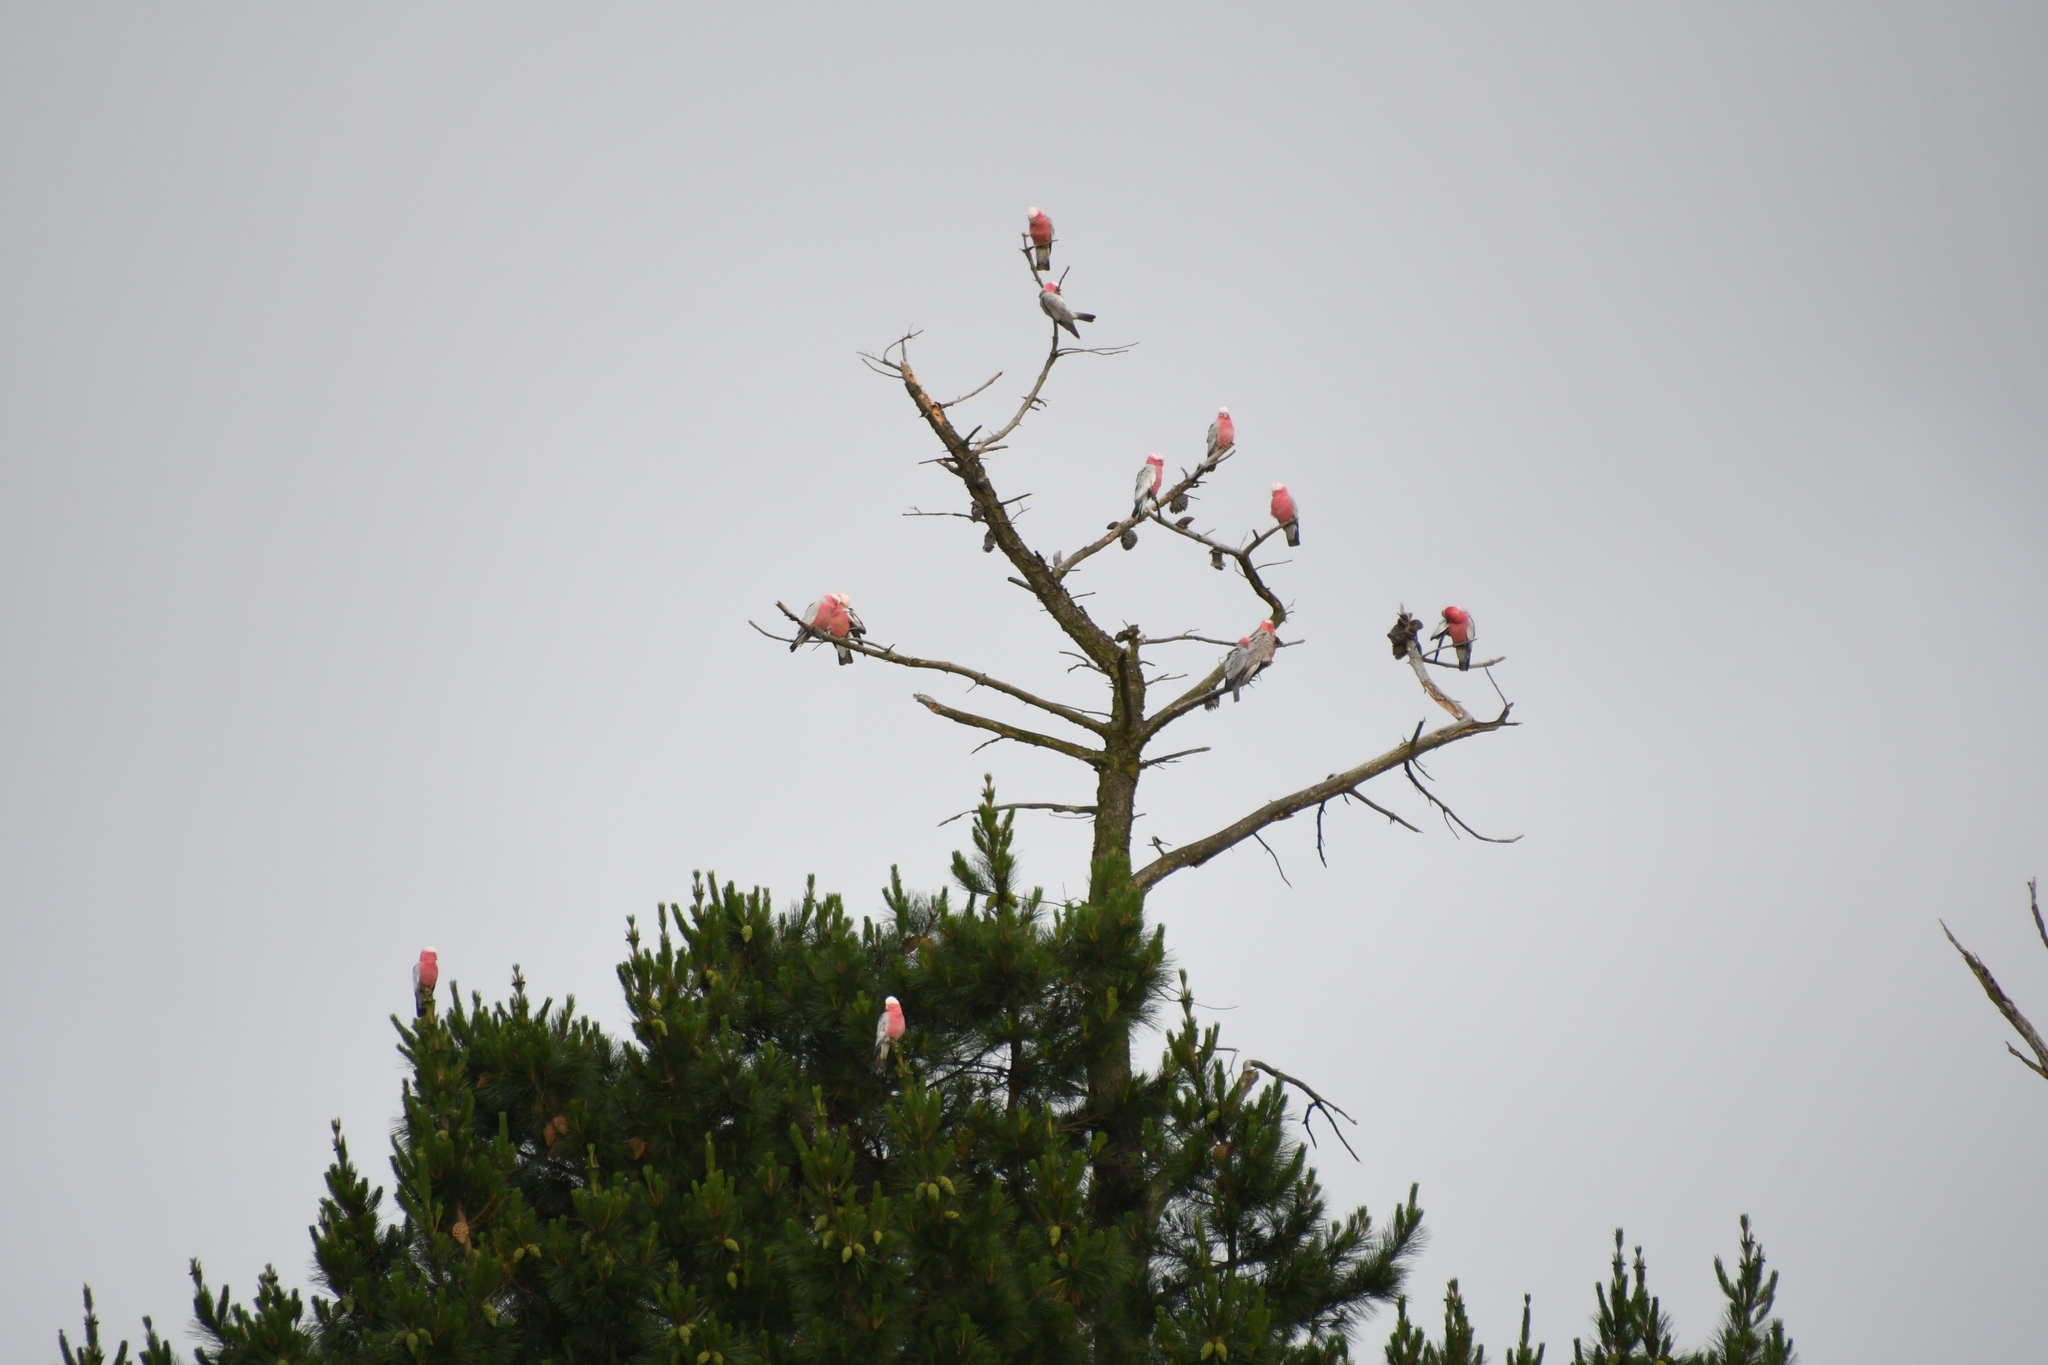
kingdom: Animalia
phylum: Chordata
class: Aves
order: Psittaciformes
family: Psittacidae
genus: Eolophus
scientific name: Eolophus roseicapilla
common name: Galah
